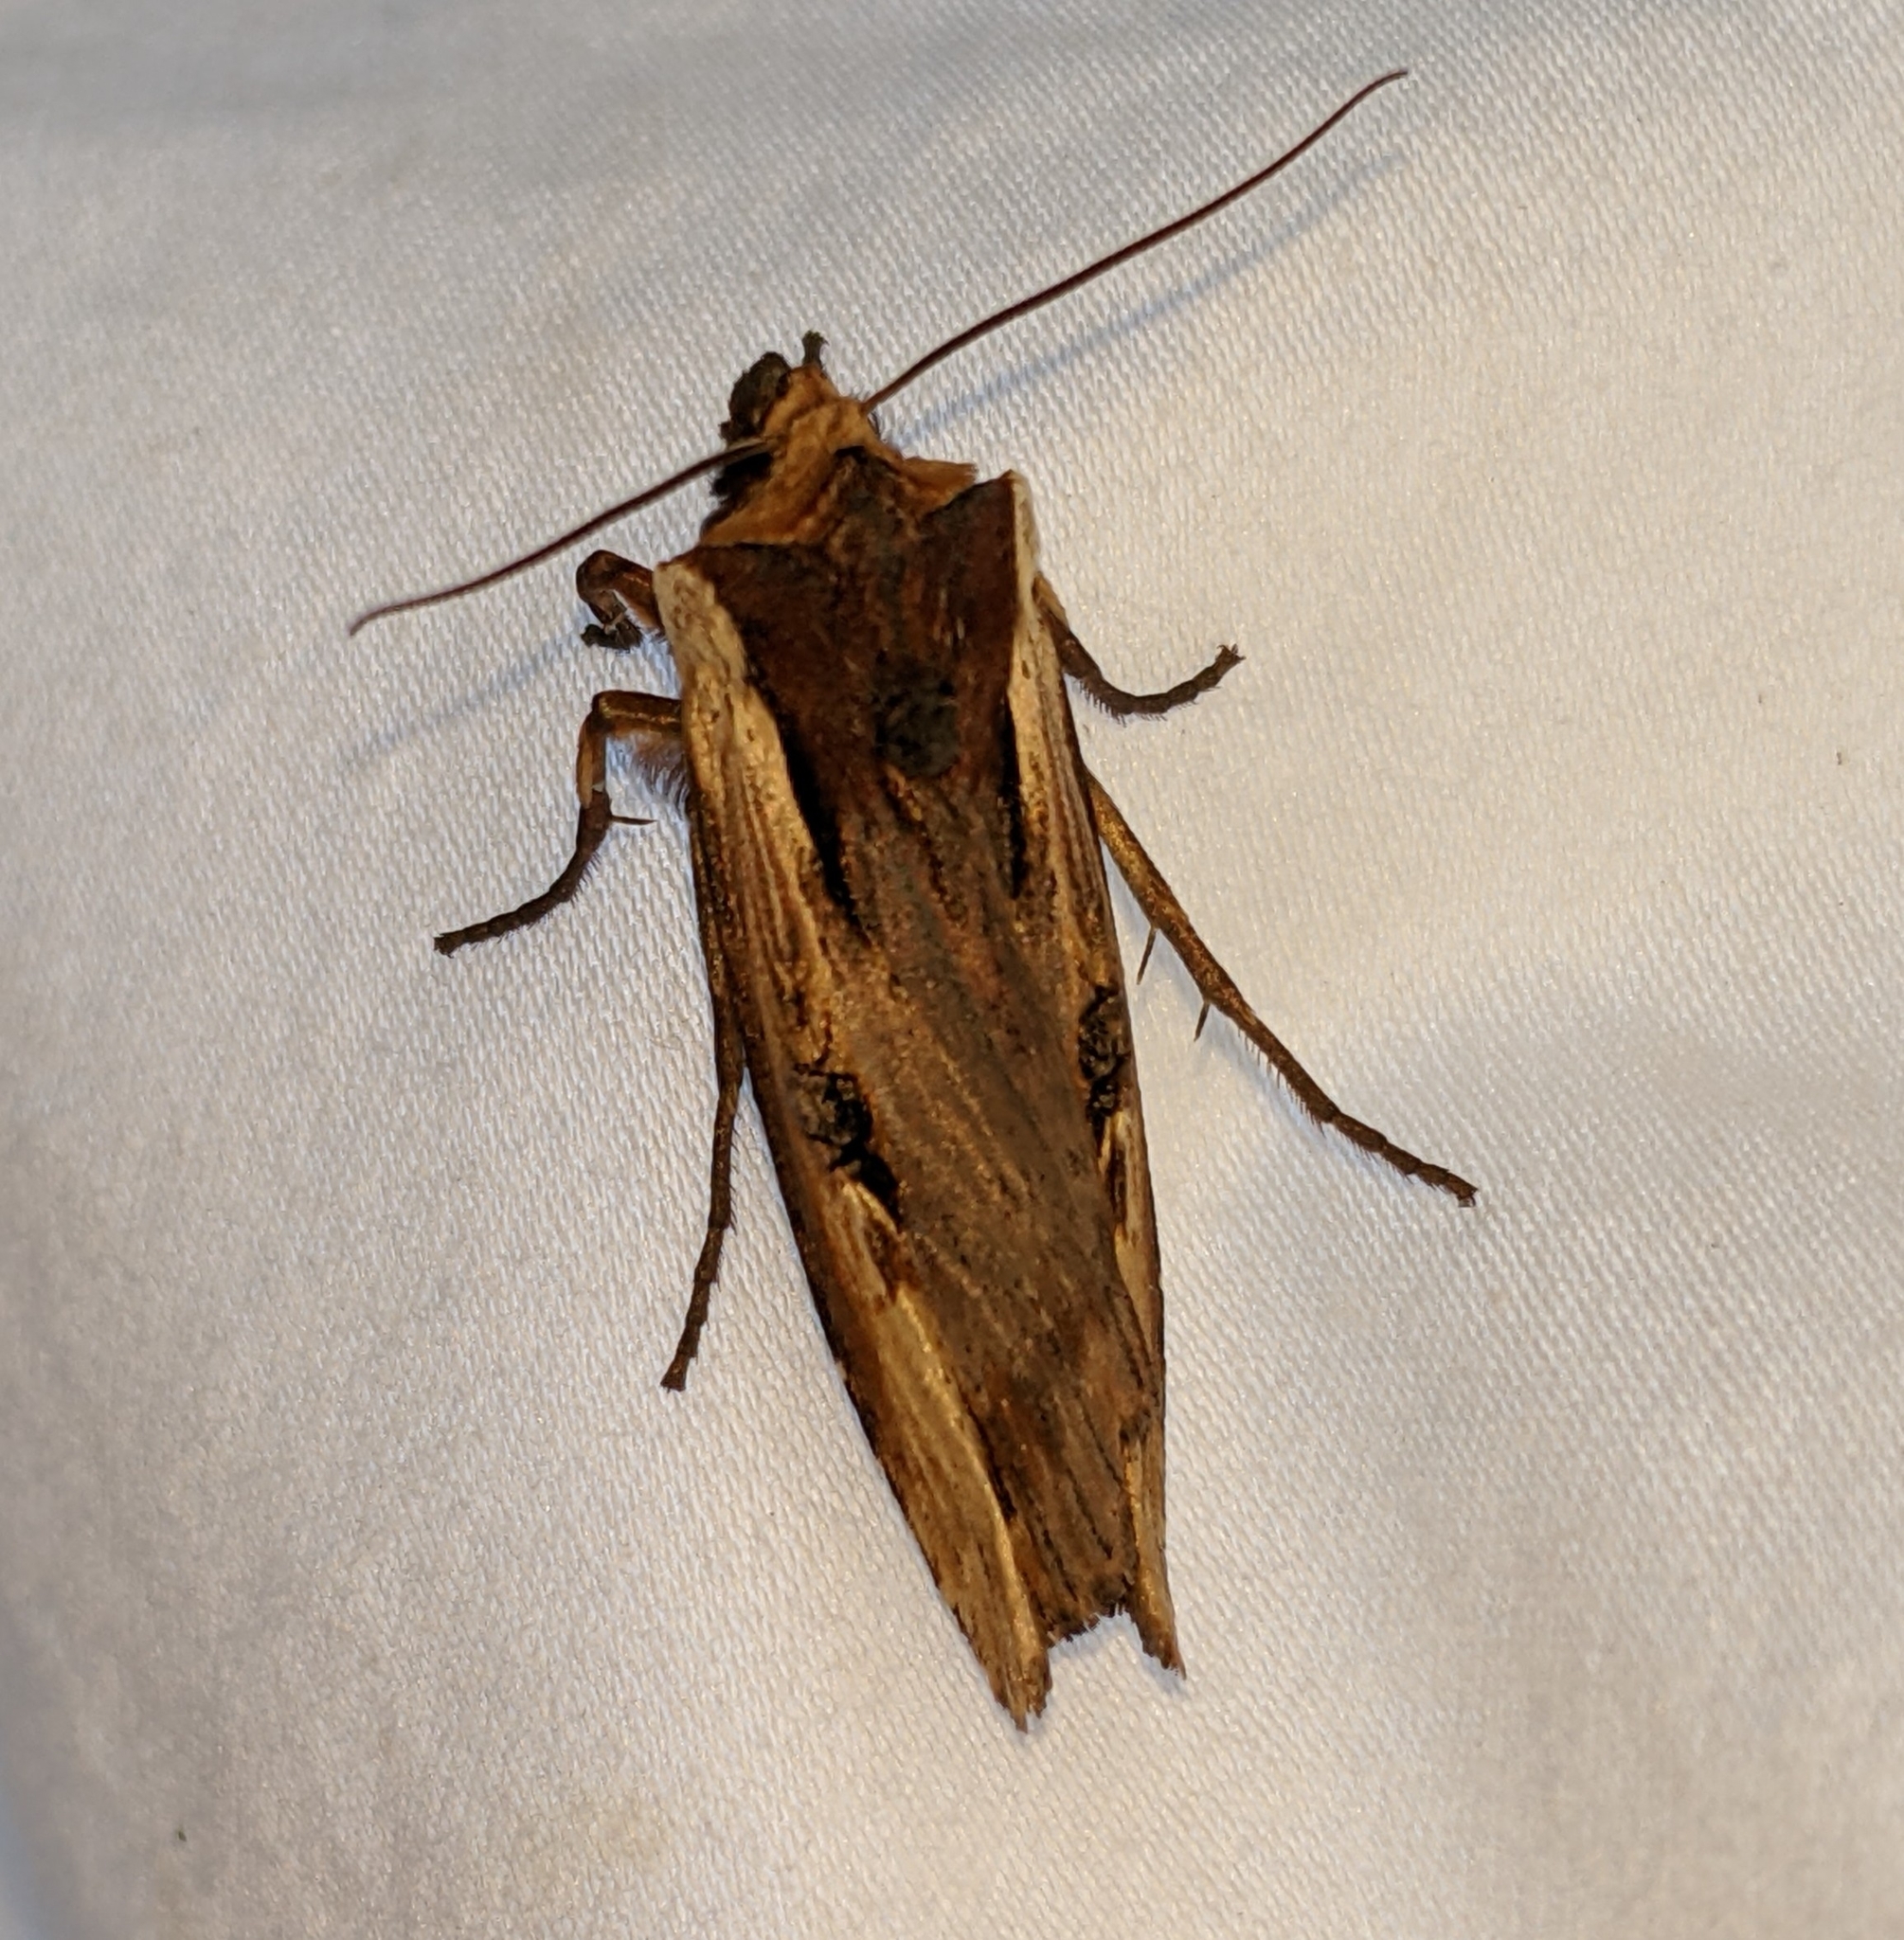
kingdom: Animalia
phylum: Arthropoda
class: Insecta
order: Lepidoptera
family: Noctuidae
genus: Xylena
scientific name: Xylena curvimacula
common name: Dot-and-dash swordgrass moth
